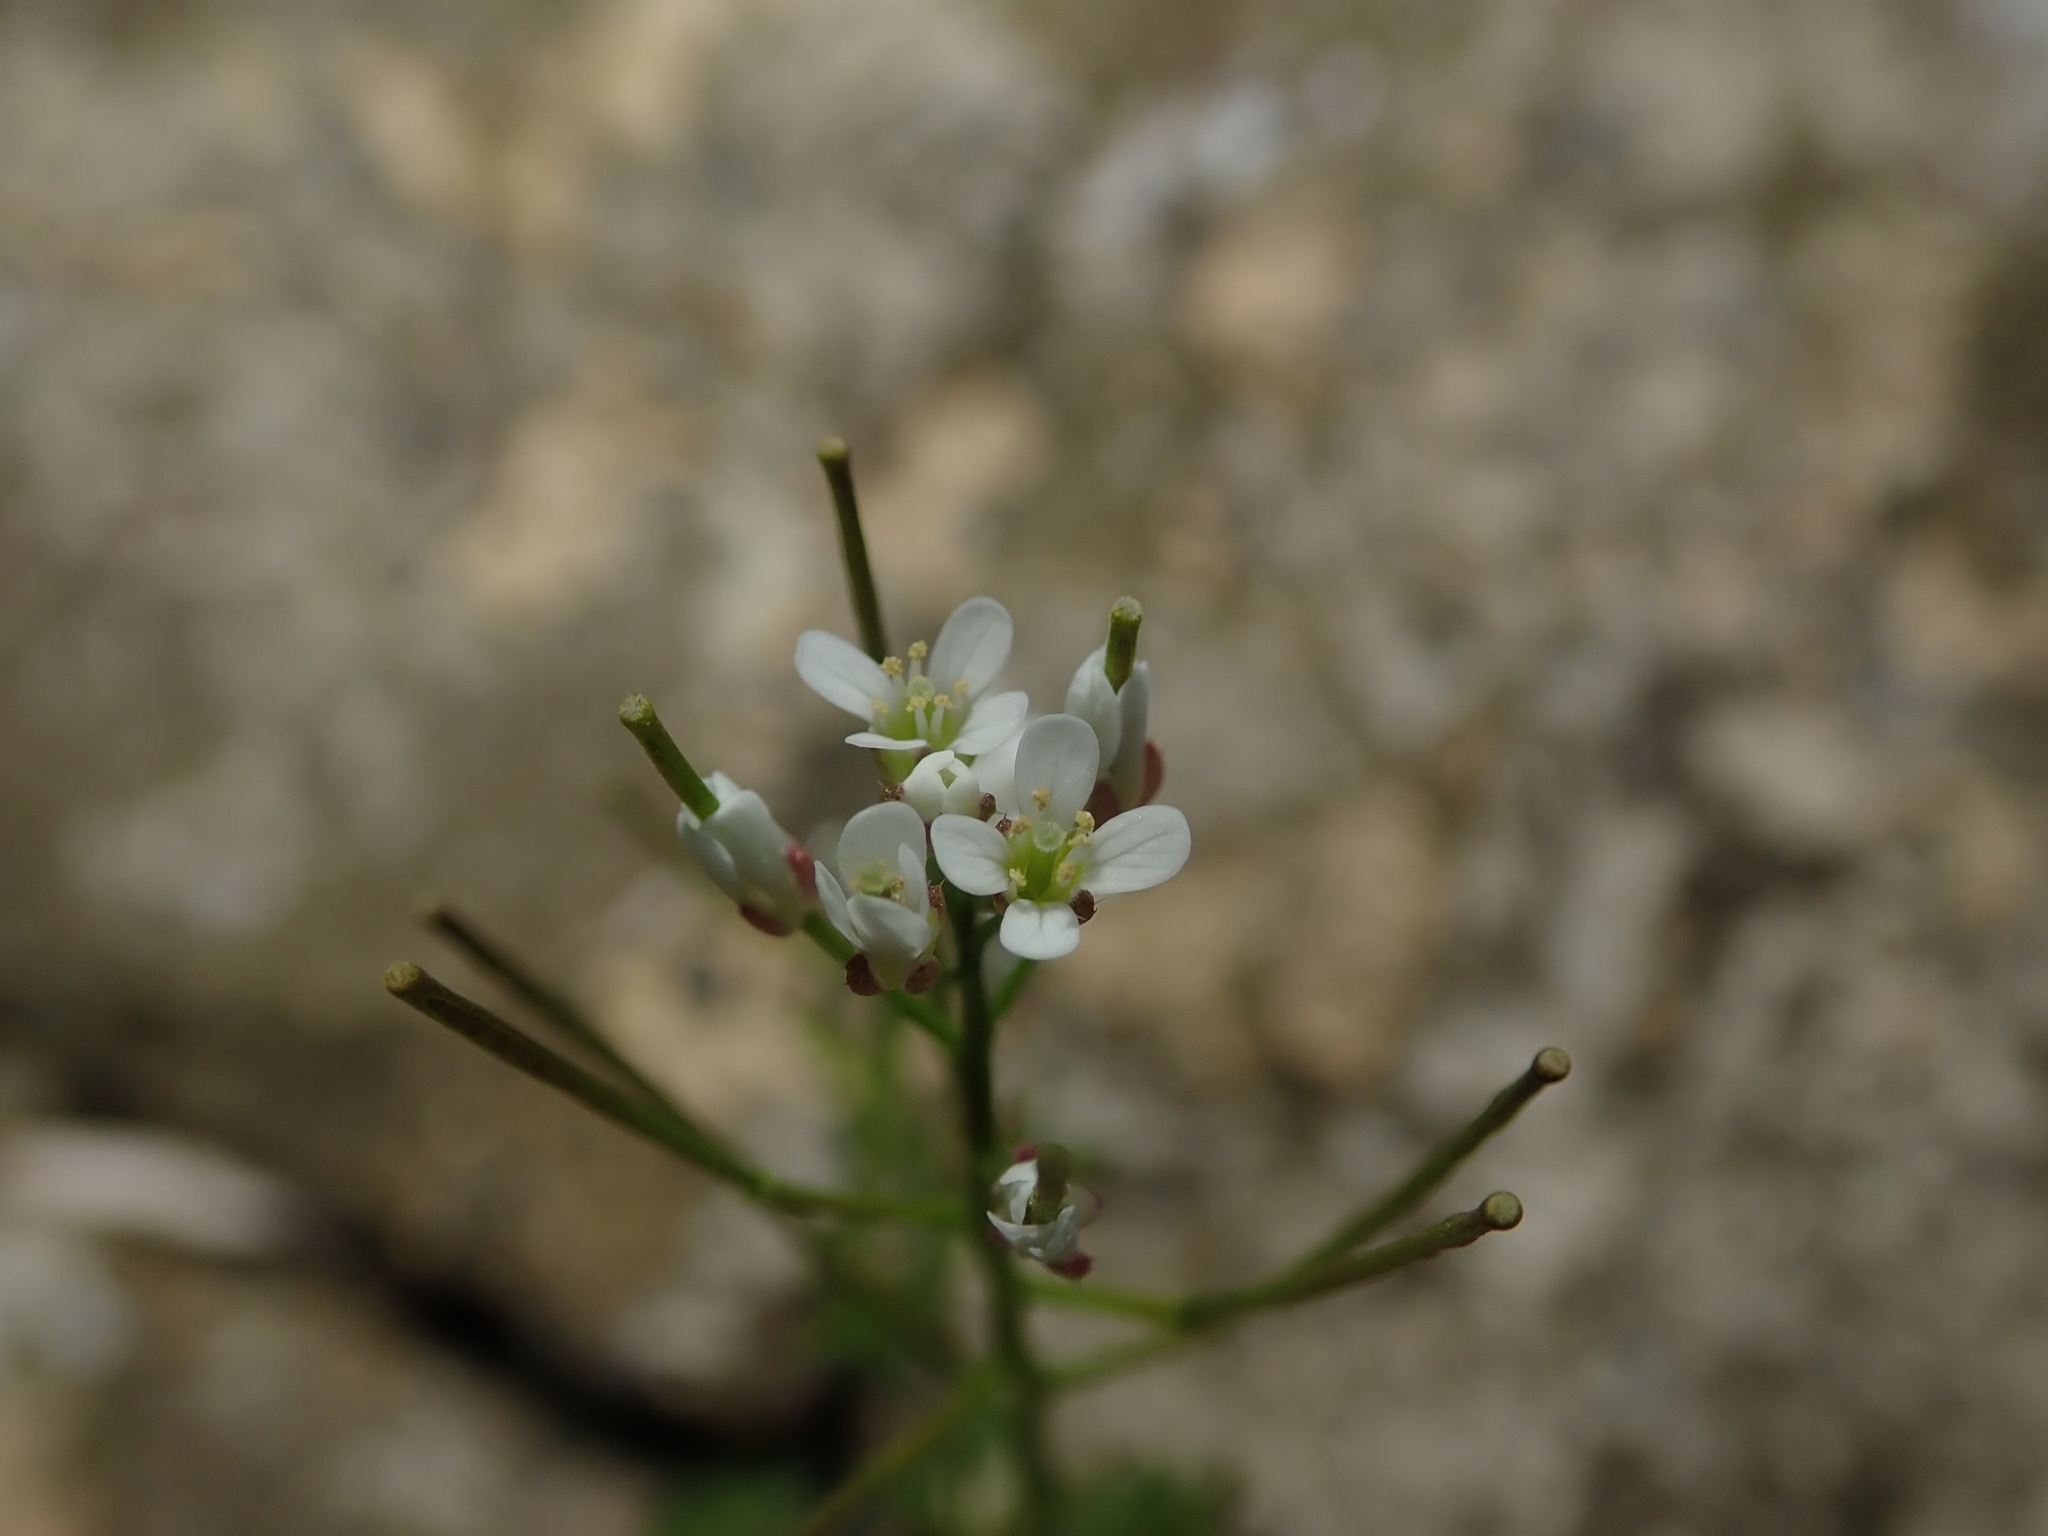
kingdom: Plantae
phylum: Tracheophyta
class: Magnoliopsida
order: Brassicales
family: Brassicaceae
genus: Cardamine
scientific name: Cardamine flexuosa
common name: Woodland bittercress
